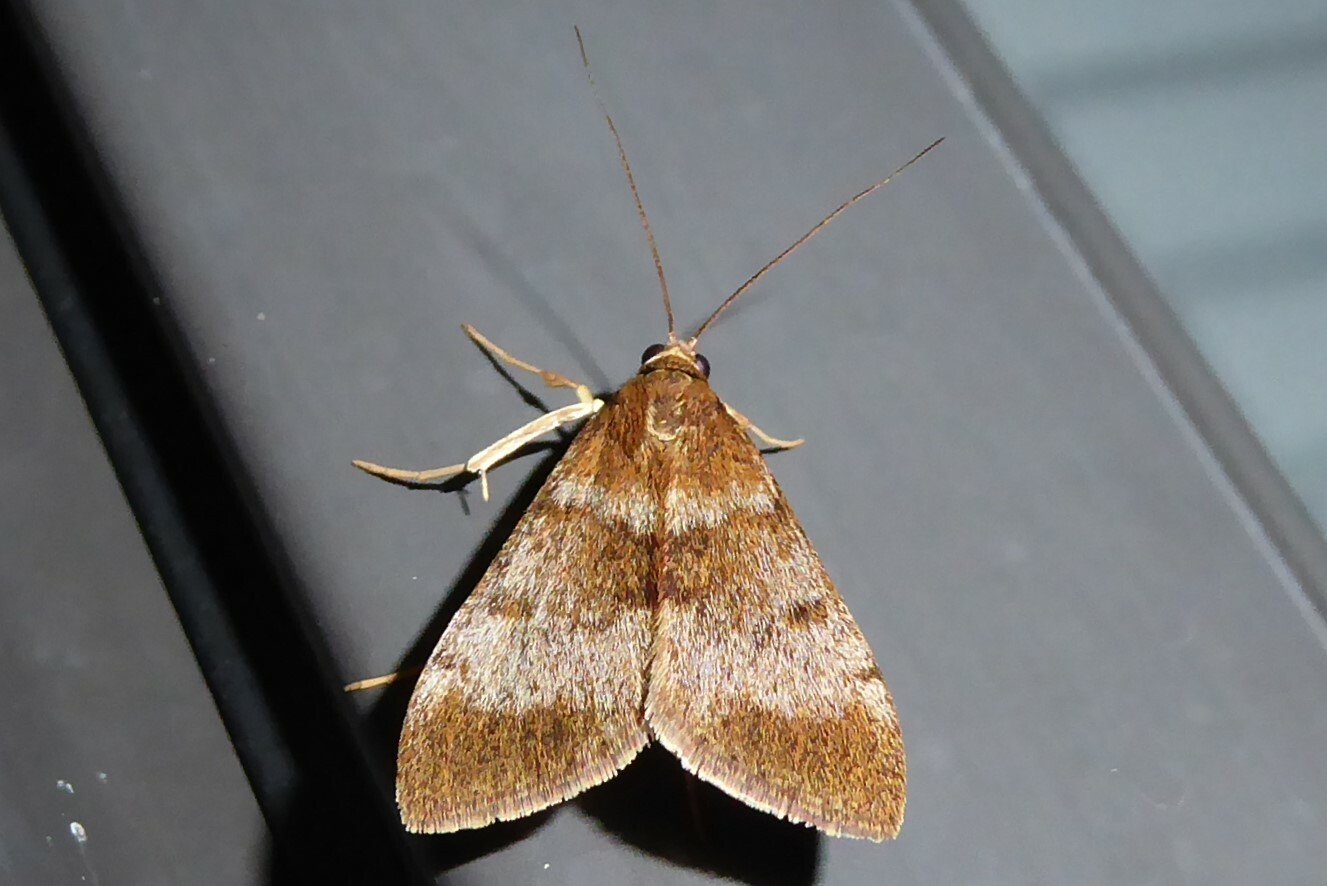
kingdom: Animalia
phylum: Arthropoda
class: Insecta
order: Lepidoptera
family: Crambidae
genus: Uresiphita
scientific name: Uresiphita
